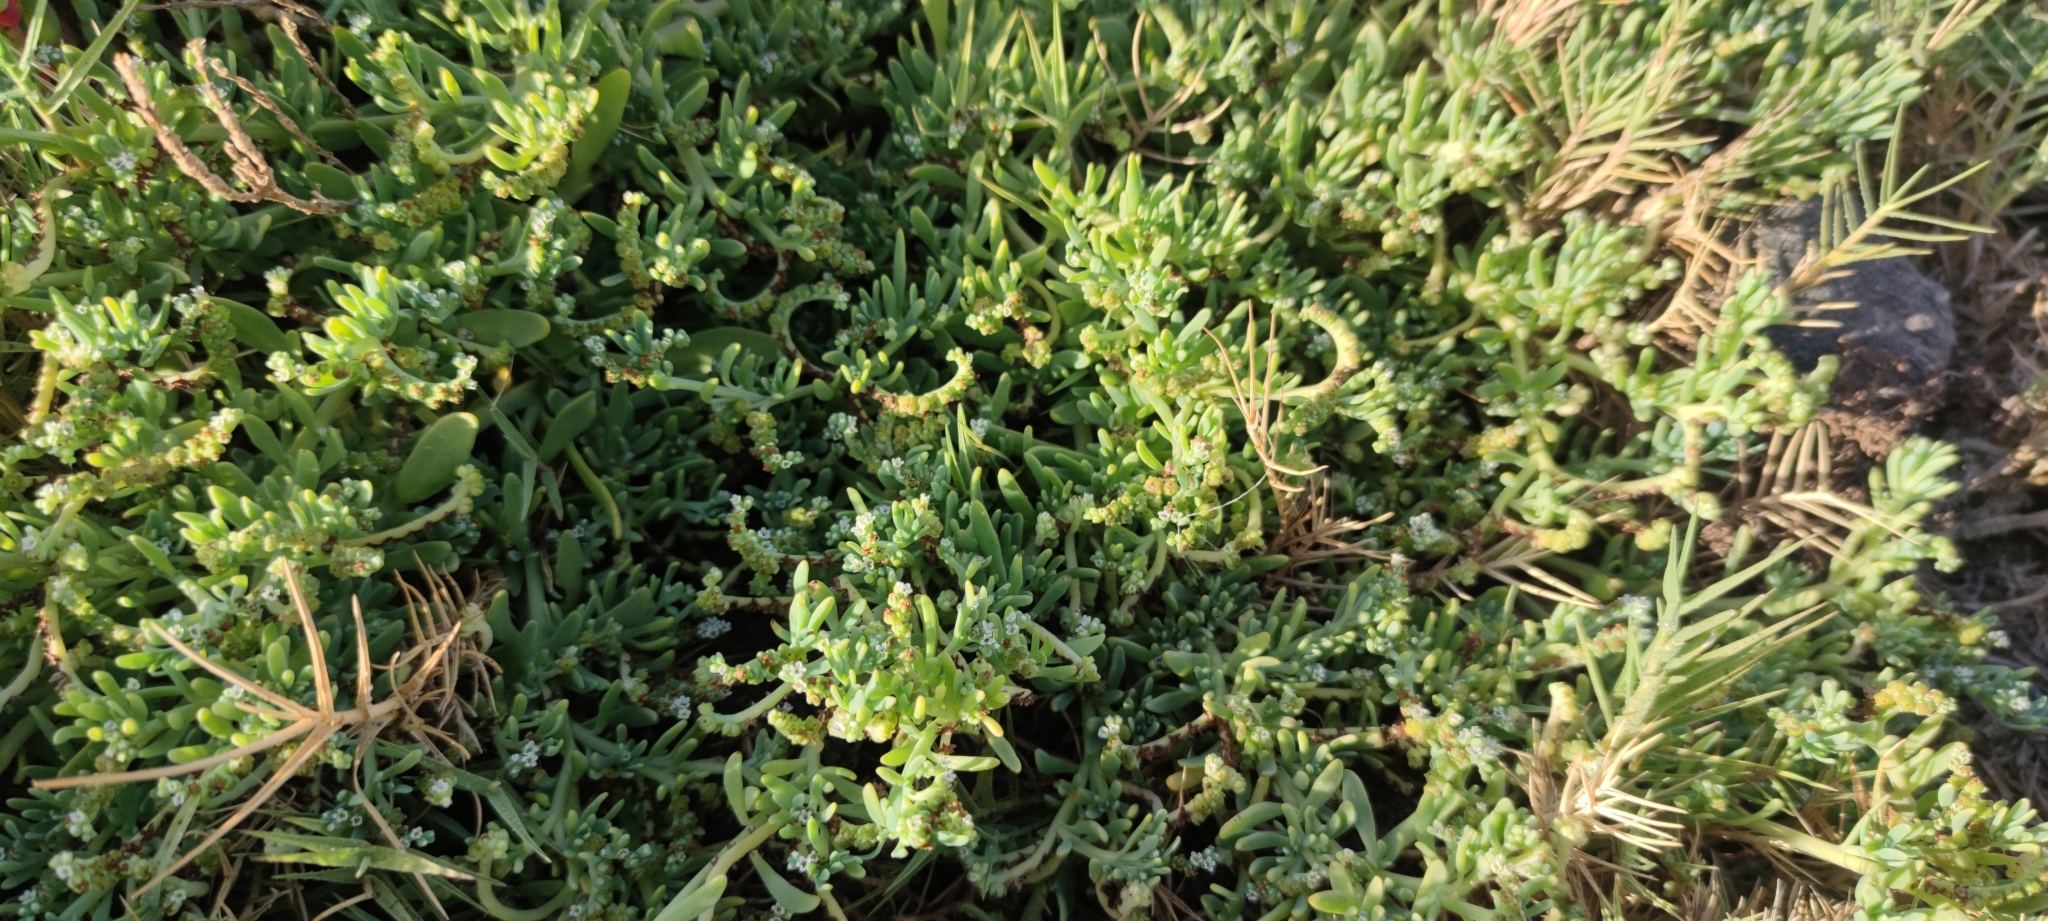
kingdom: Plantae
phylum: Tracheophyta
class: Magnoliopsida
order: Boraginales
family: Heliotropiaceae
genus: Heliotropium
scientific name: Heliotropium curassavicum
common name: Seaside heliotrope
